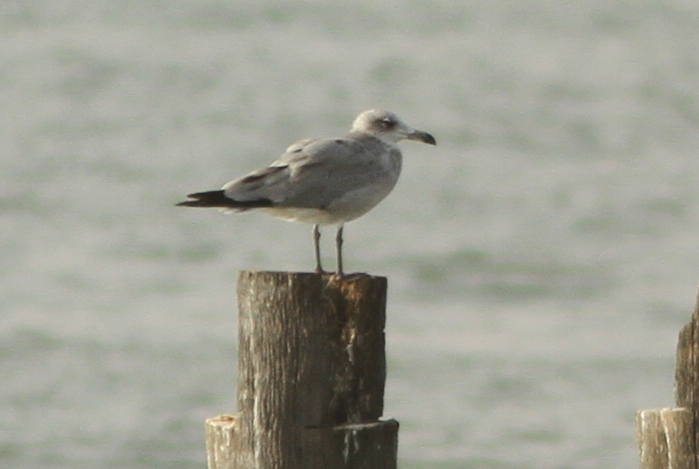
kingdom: Animalia
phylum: Chordata
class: Aves
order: Charadriiformes
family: Laridae
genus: Ichthyaetus
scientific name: Ichthyaetus audouinii
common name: Audouin's gull
